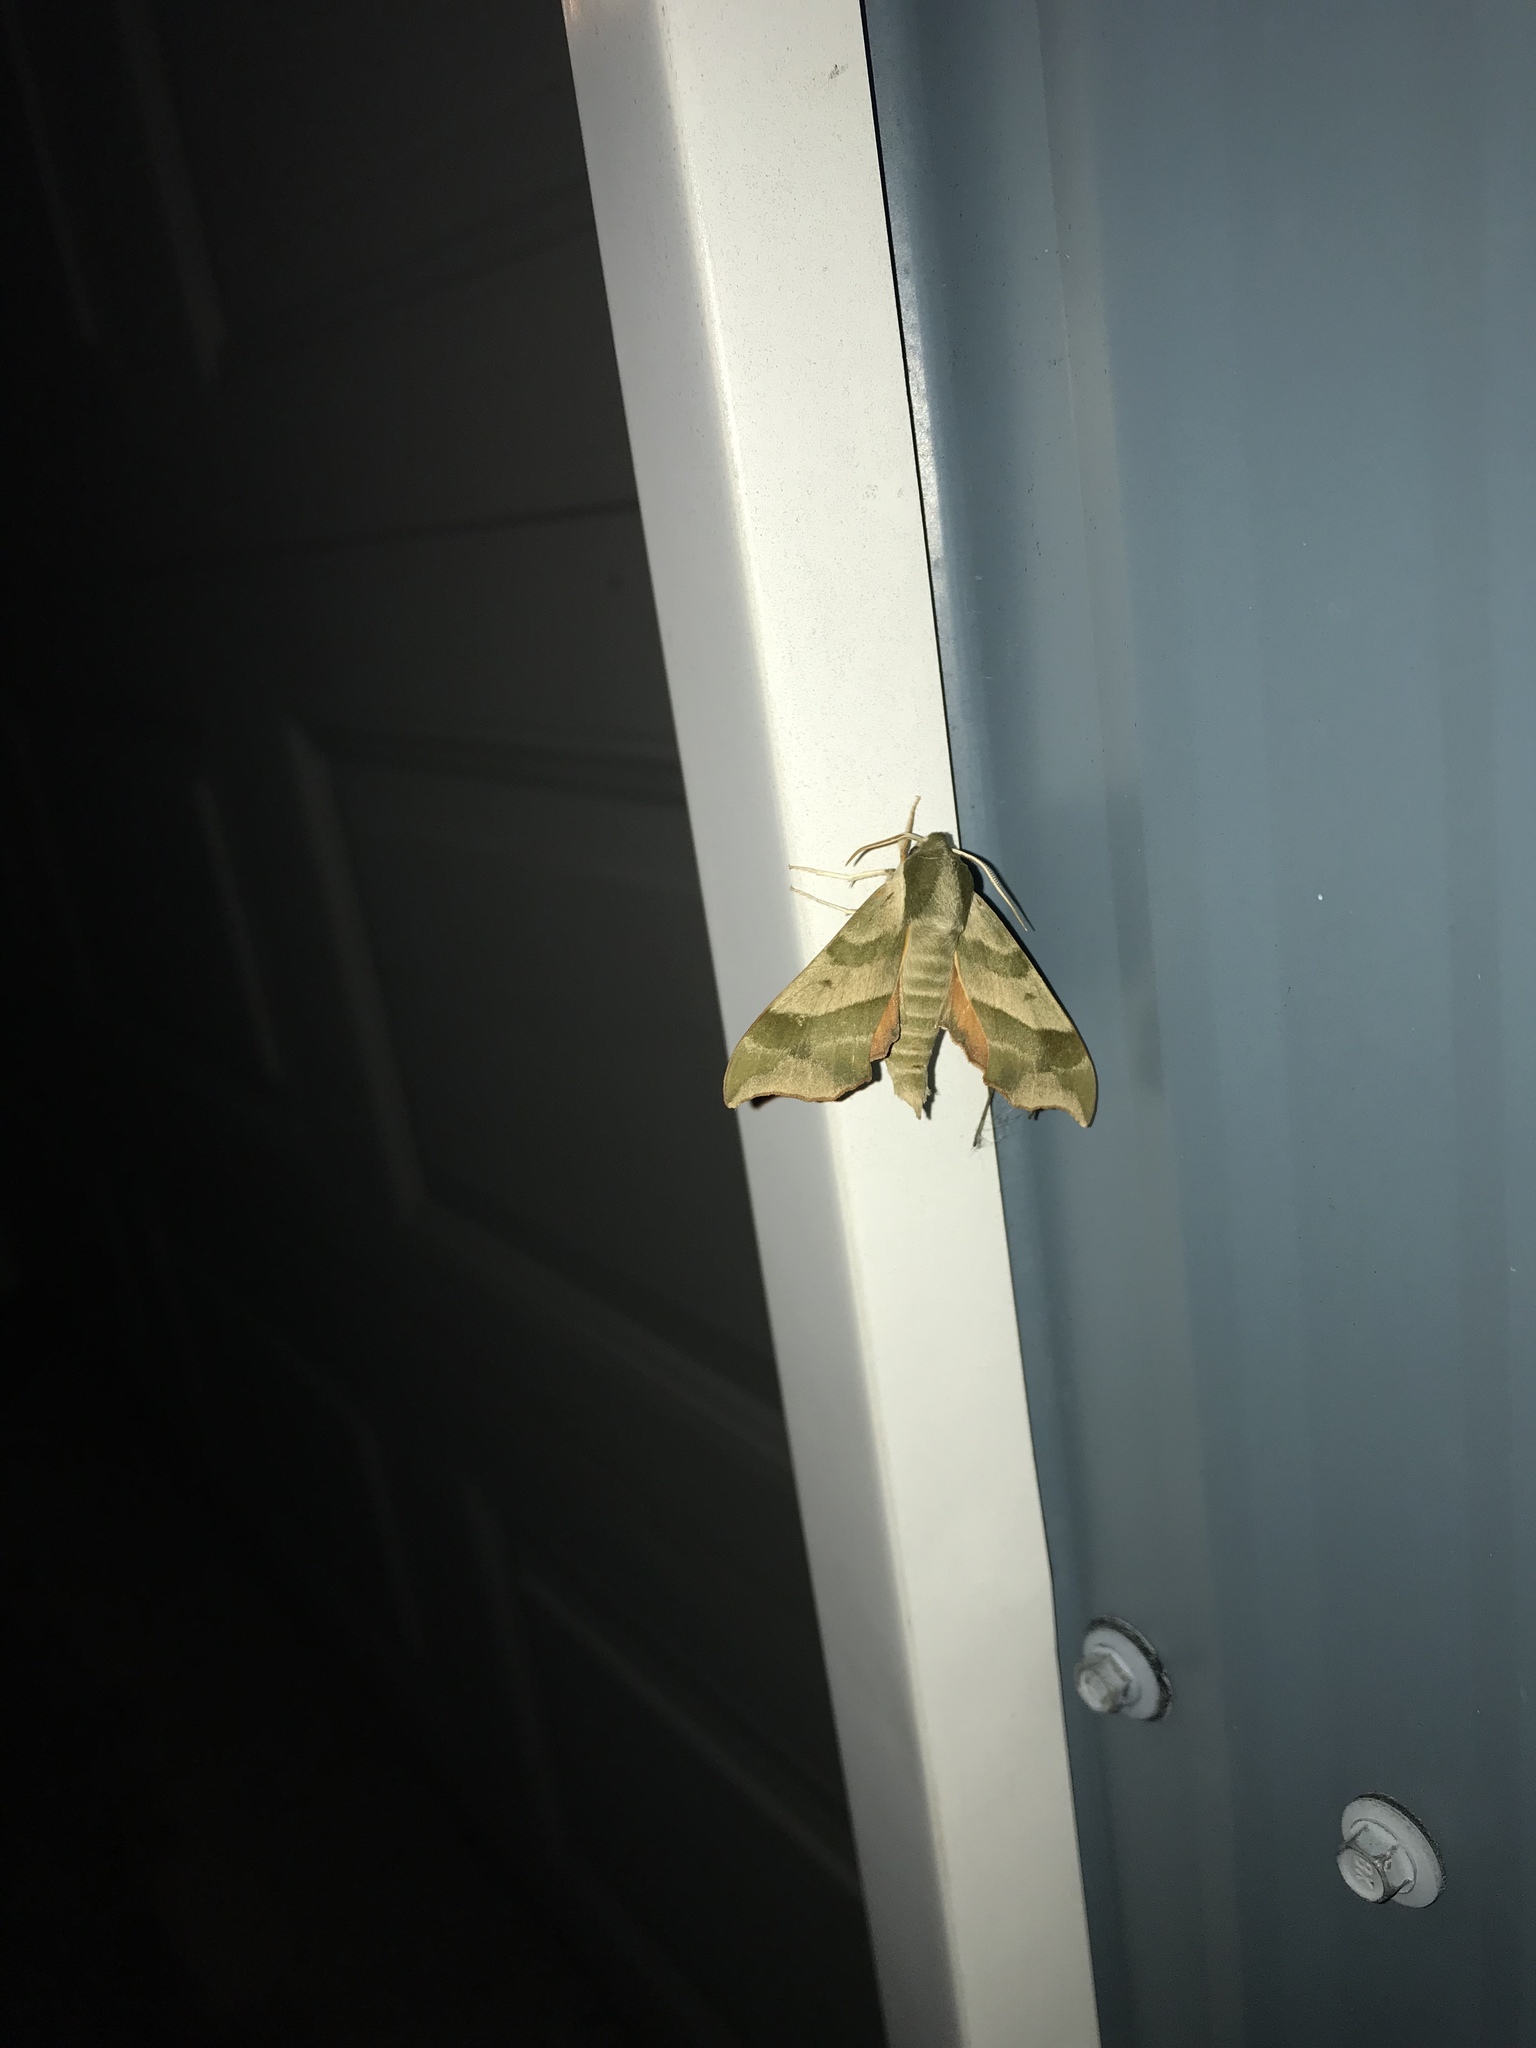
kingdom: Animalia
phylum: Arthropoda
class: Insecta
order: Lepidoptera
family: Sphingidae
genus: Darapsa
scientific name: Darapsa myron
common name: Hog sphinx
